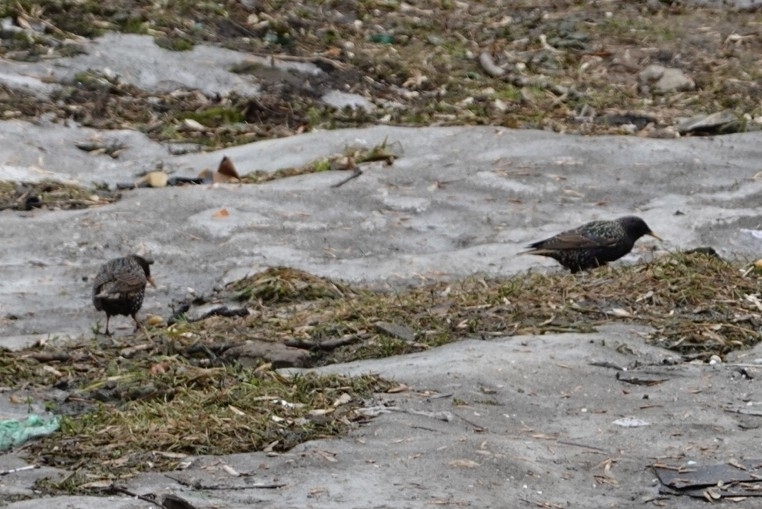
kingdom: Animalia
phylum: Chordata
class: Aves
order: Passeriformes
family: Sturnidae
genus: Sturnus
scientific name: Sturnus vulgaris
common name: Common starling
